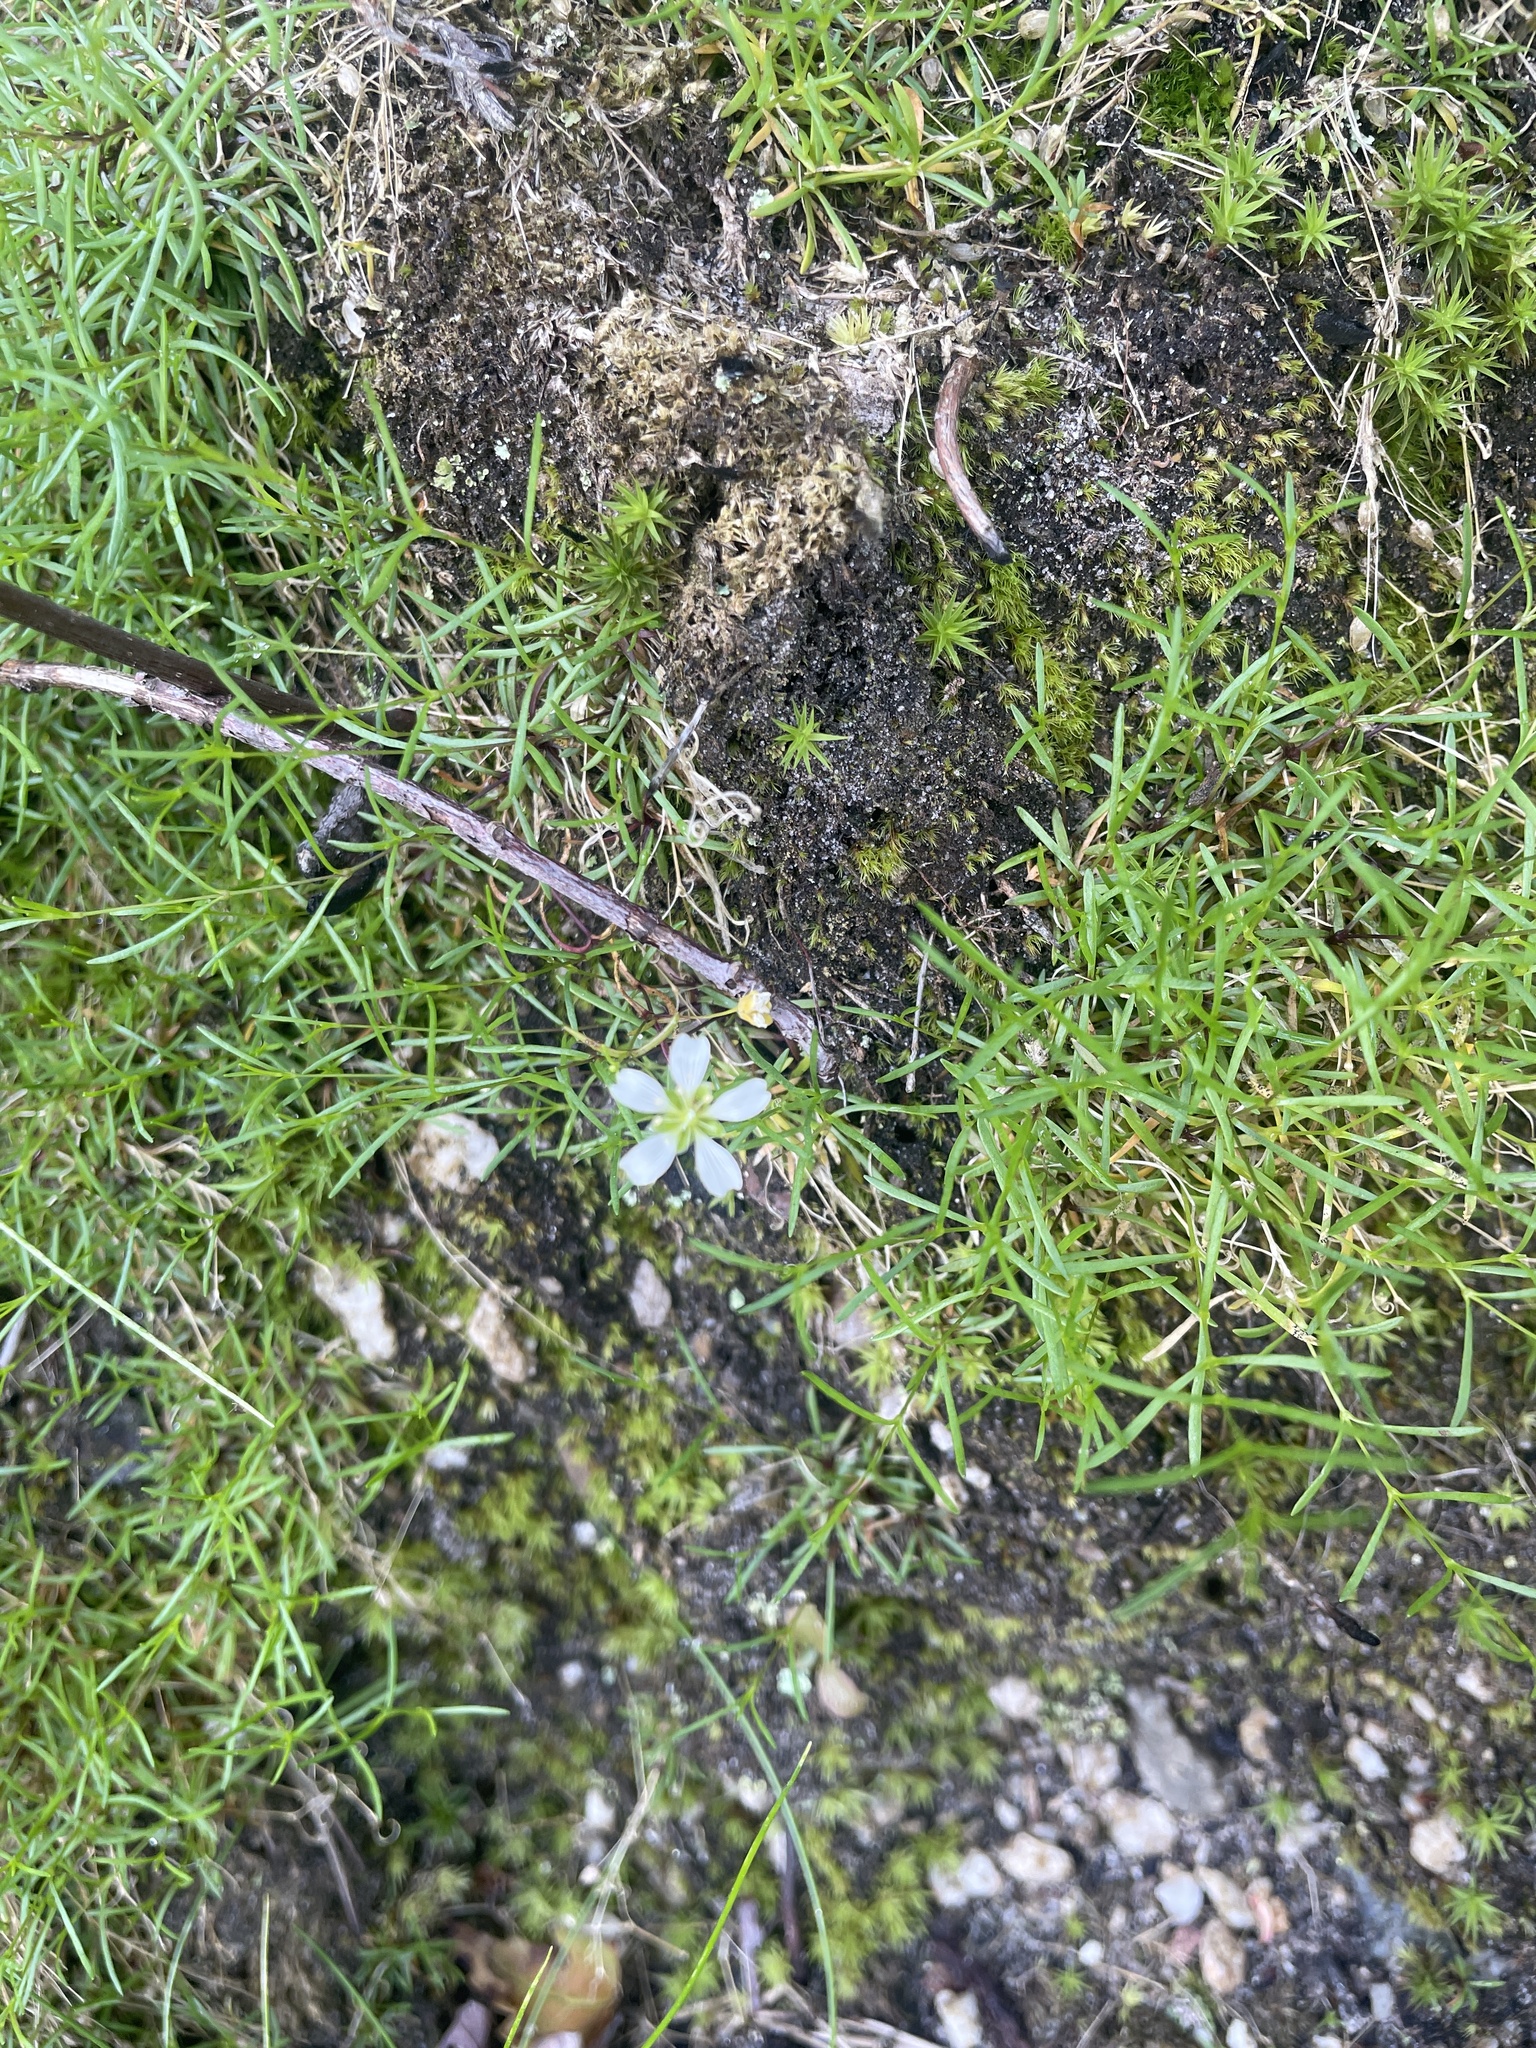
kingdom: Plantae
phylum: Tracheophyta
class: Magnoliopsida
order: Caryophyllales
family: Caryophyllaceae
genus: Geocarpon
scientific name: Geocarpon groenlandicum
